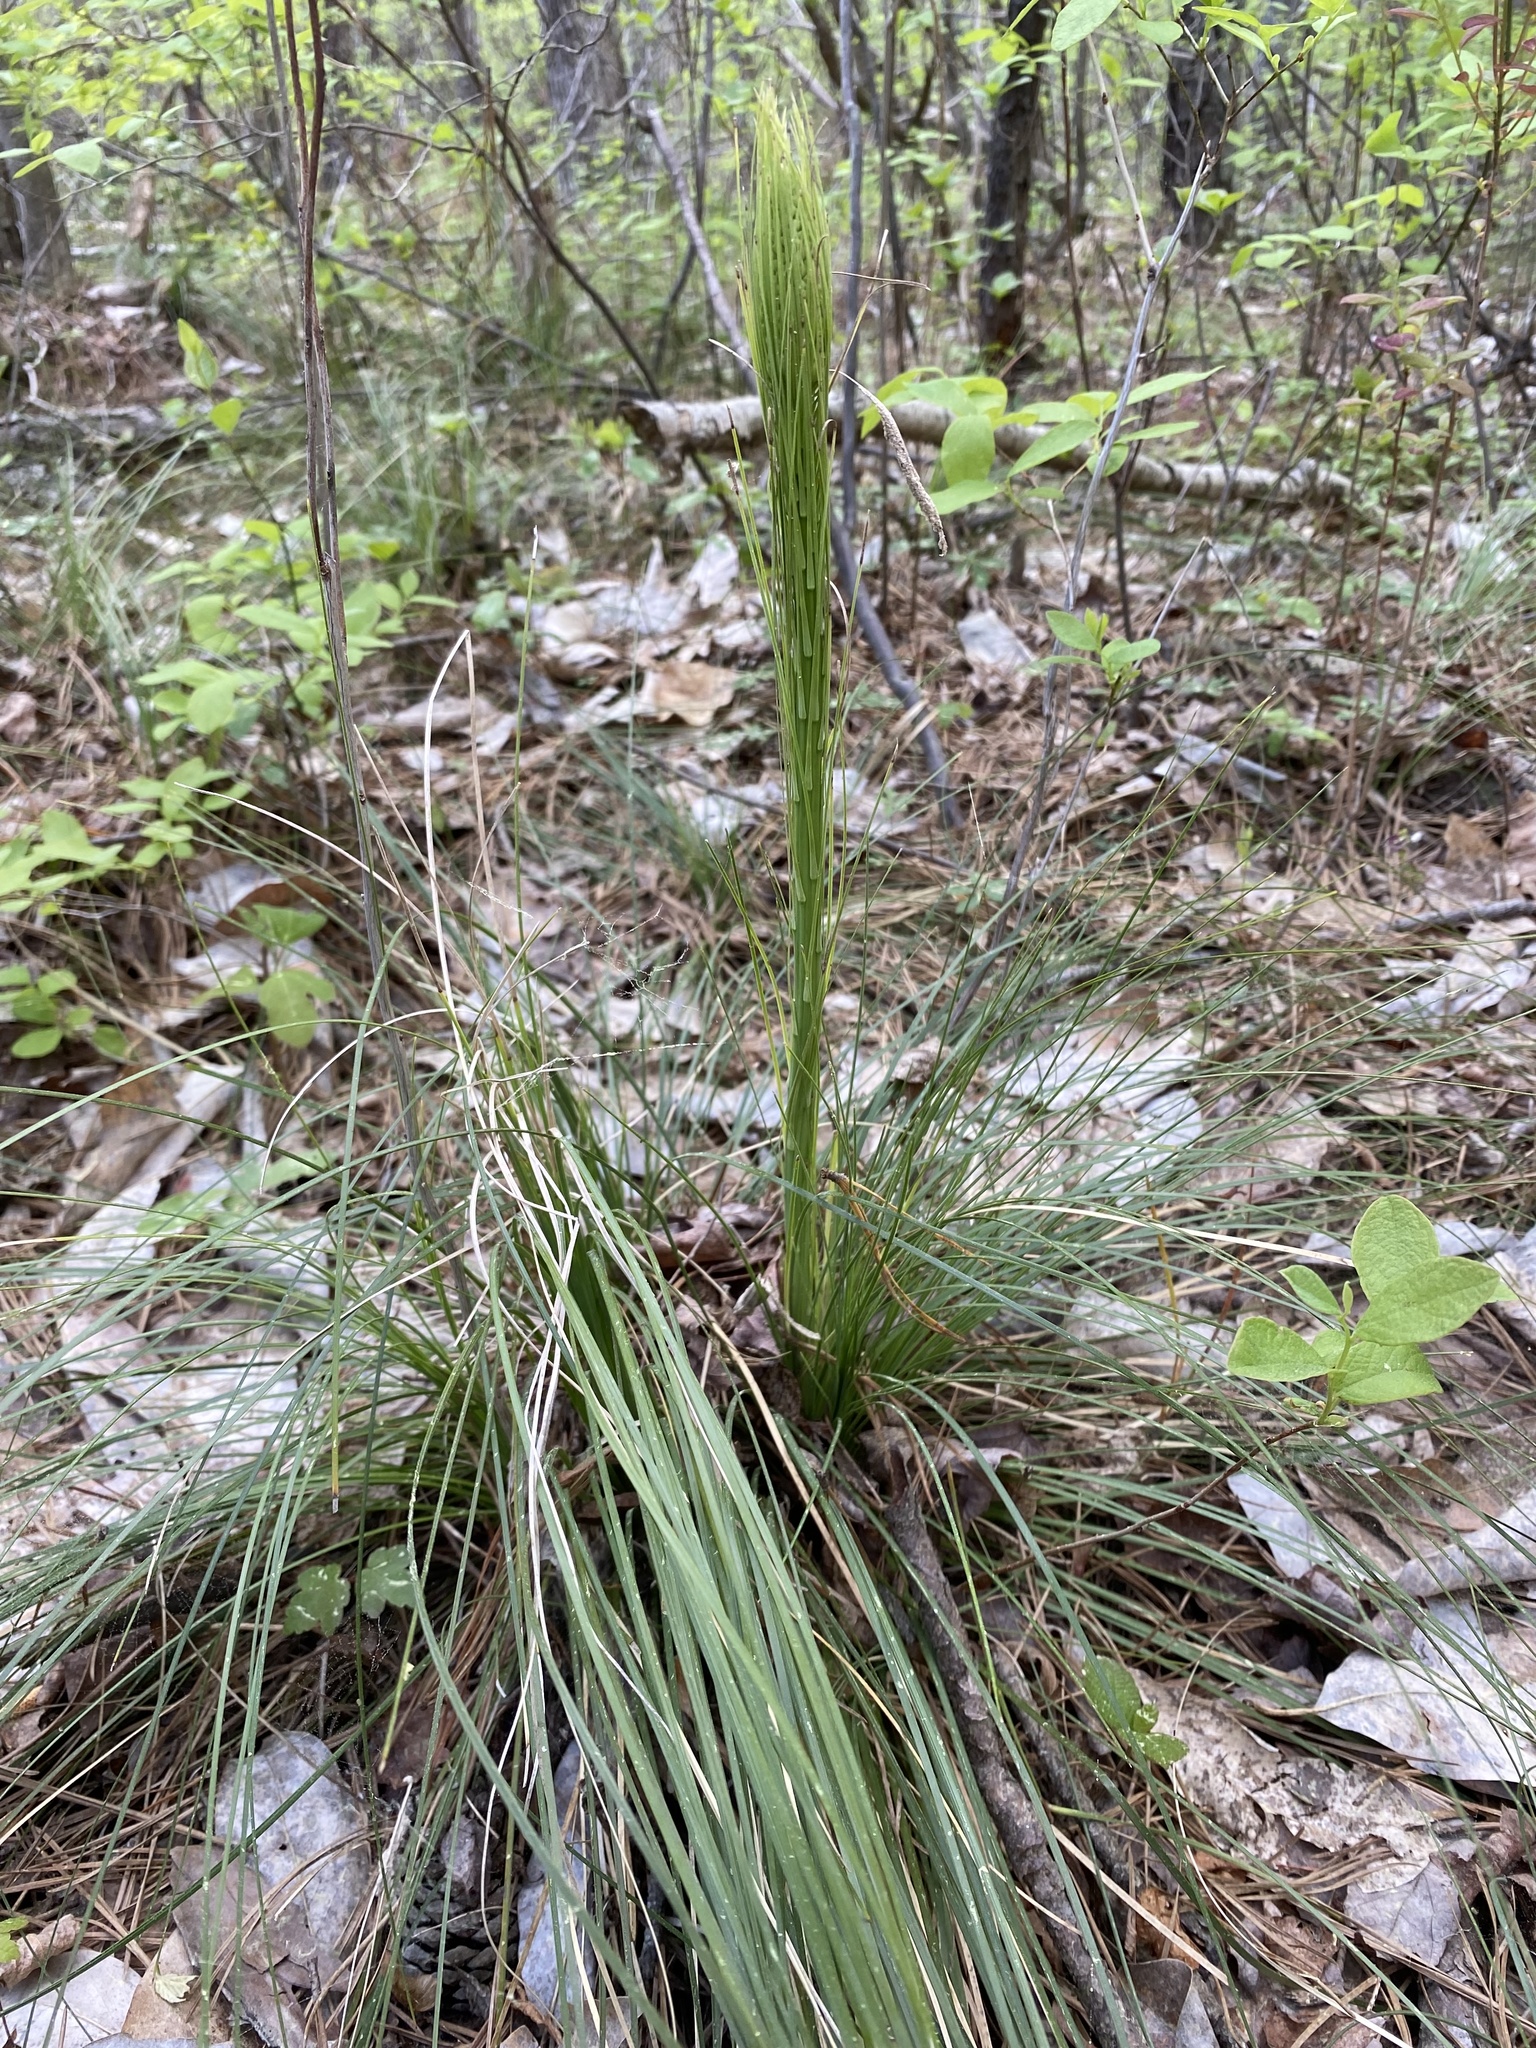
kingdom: Plantae
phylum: Tracheophyta
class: Liliopsida
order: Liliales
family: Melanthiaceae
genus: Xerophyllum
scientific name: Xerophyllum asphodeloides
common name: Mountain-asphodel
